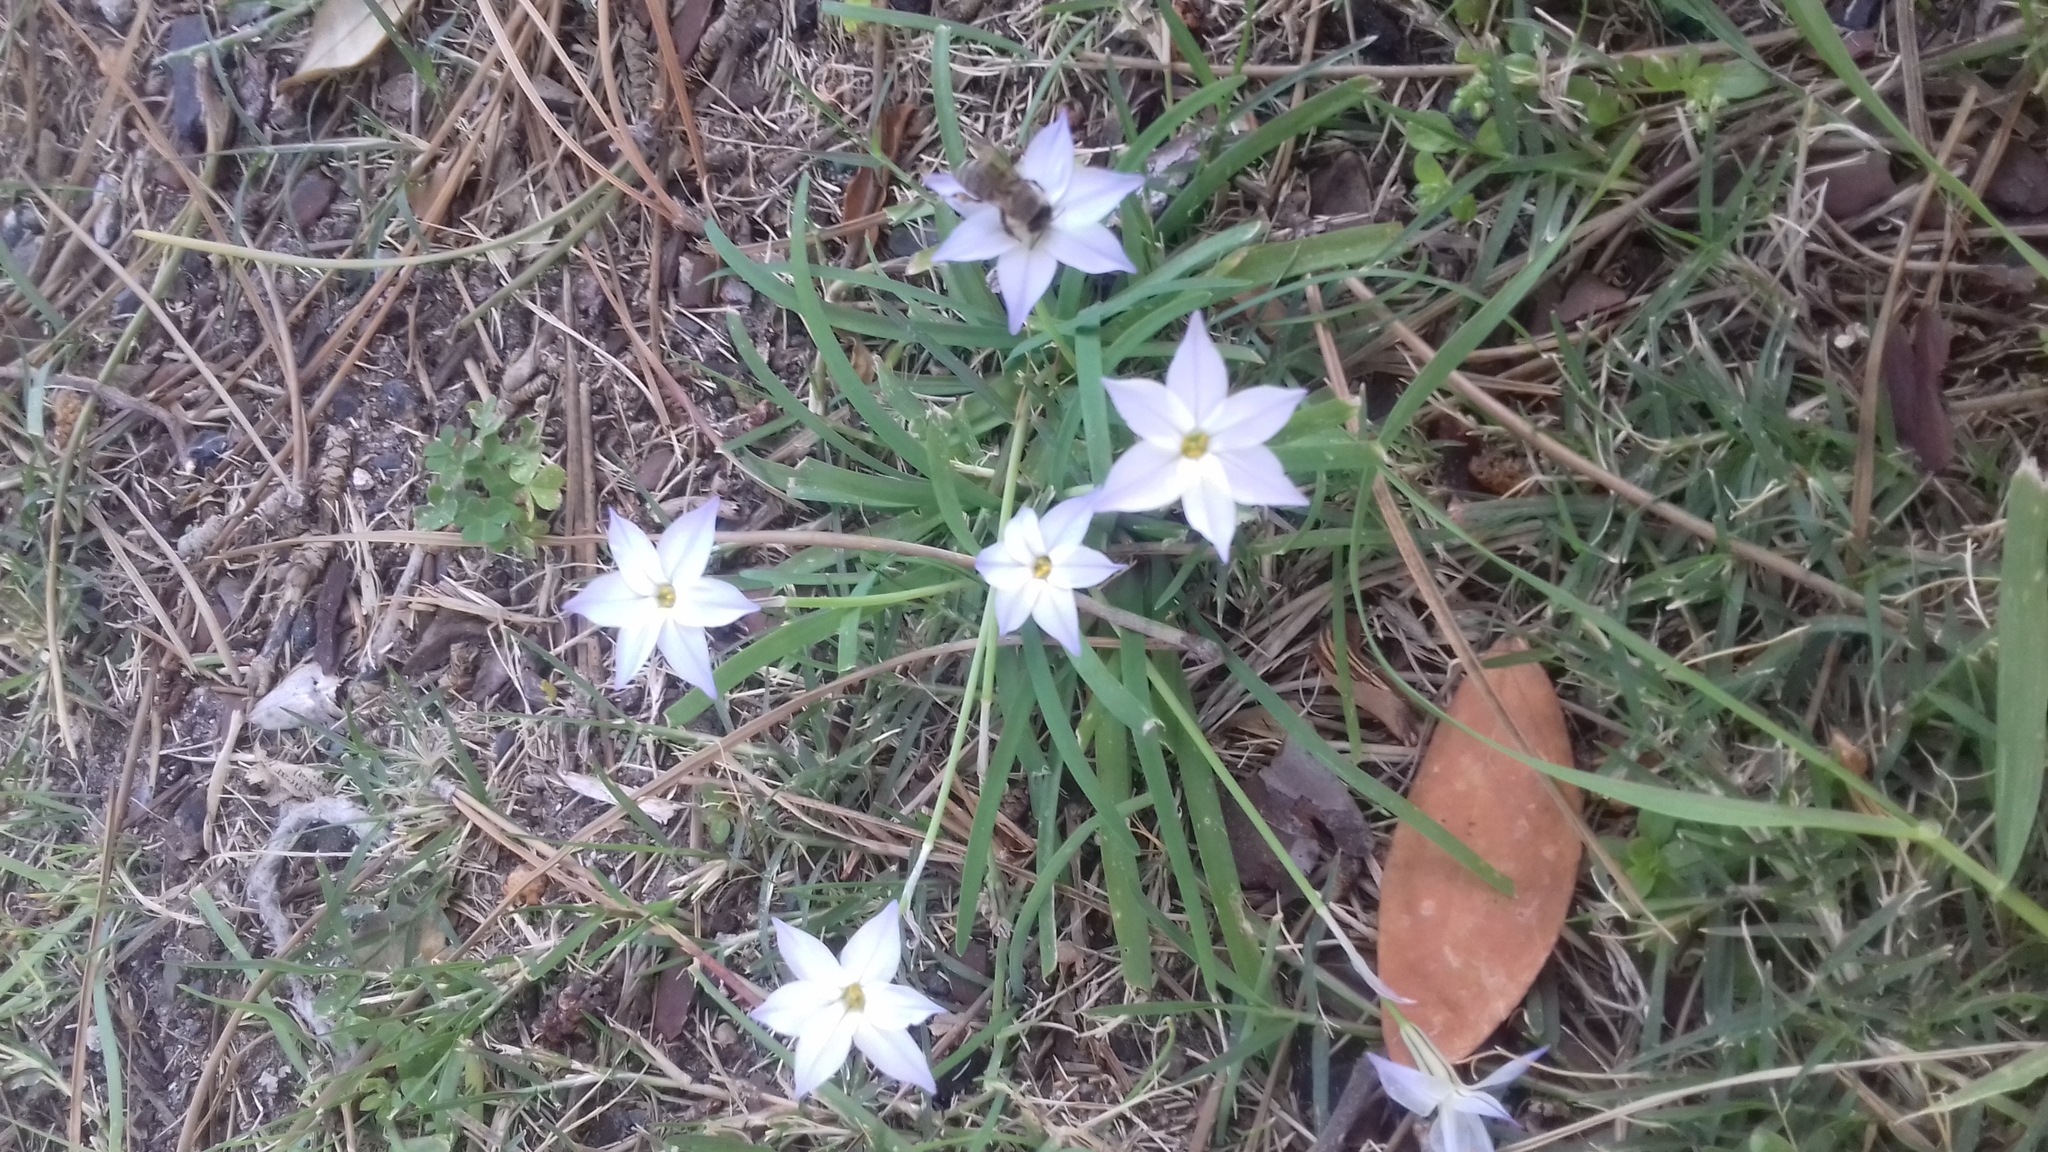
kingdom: Animalia
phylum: Arthropoda
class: Insecta
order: Hymenoptera
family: Apidae
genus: Apis
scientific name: Apis mellifera
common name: Honey bee
